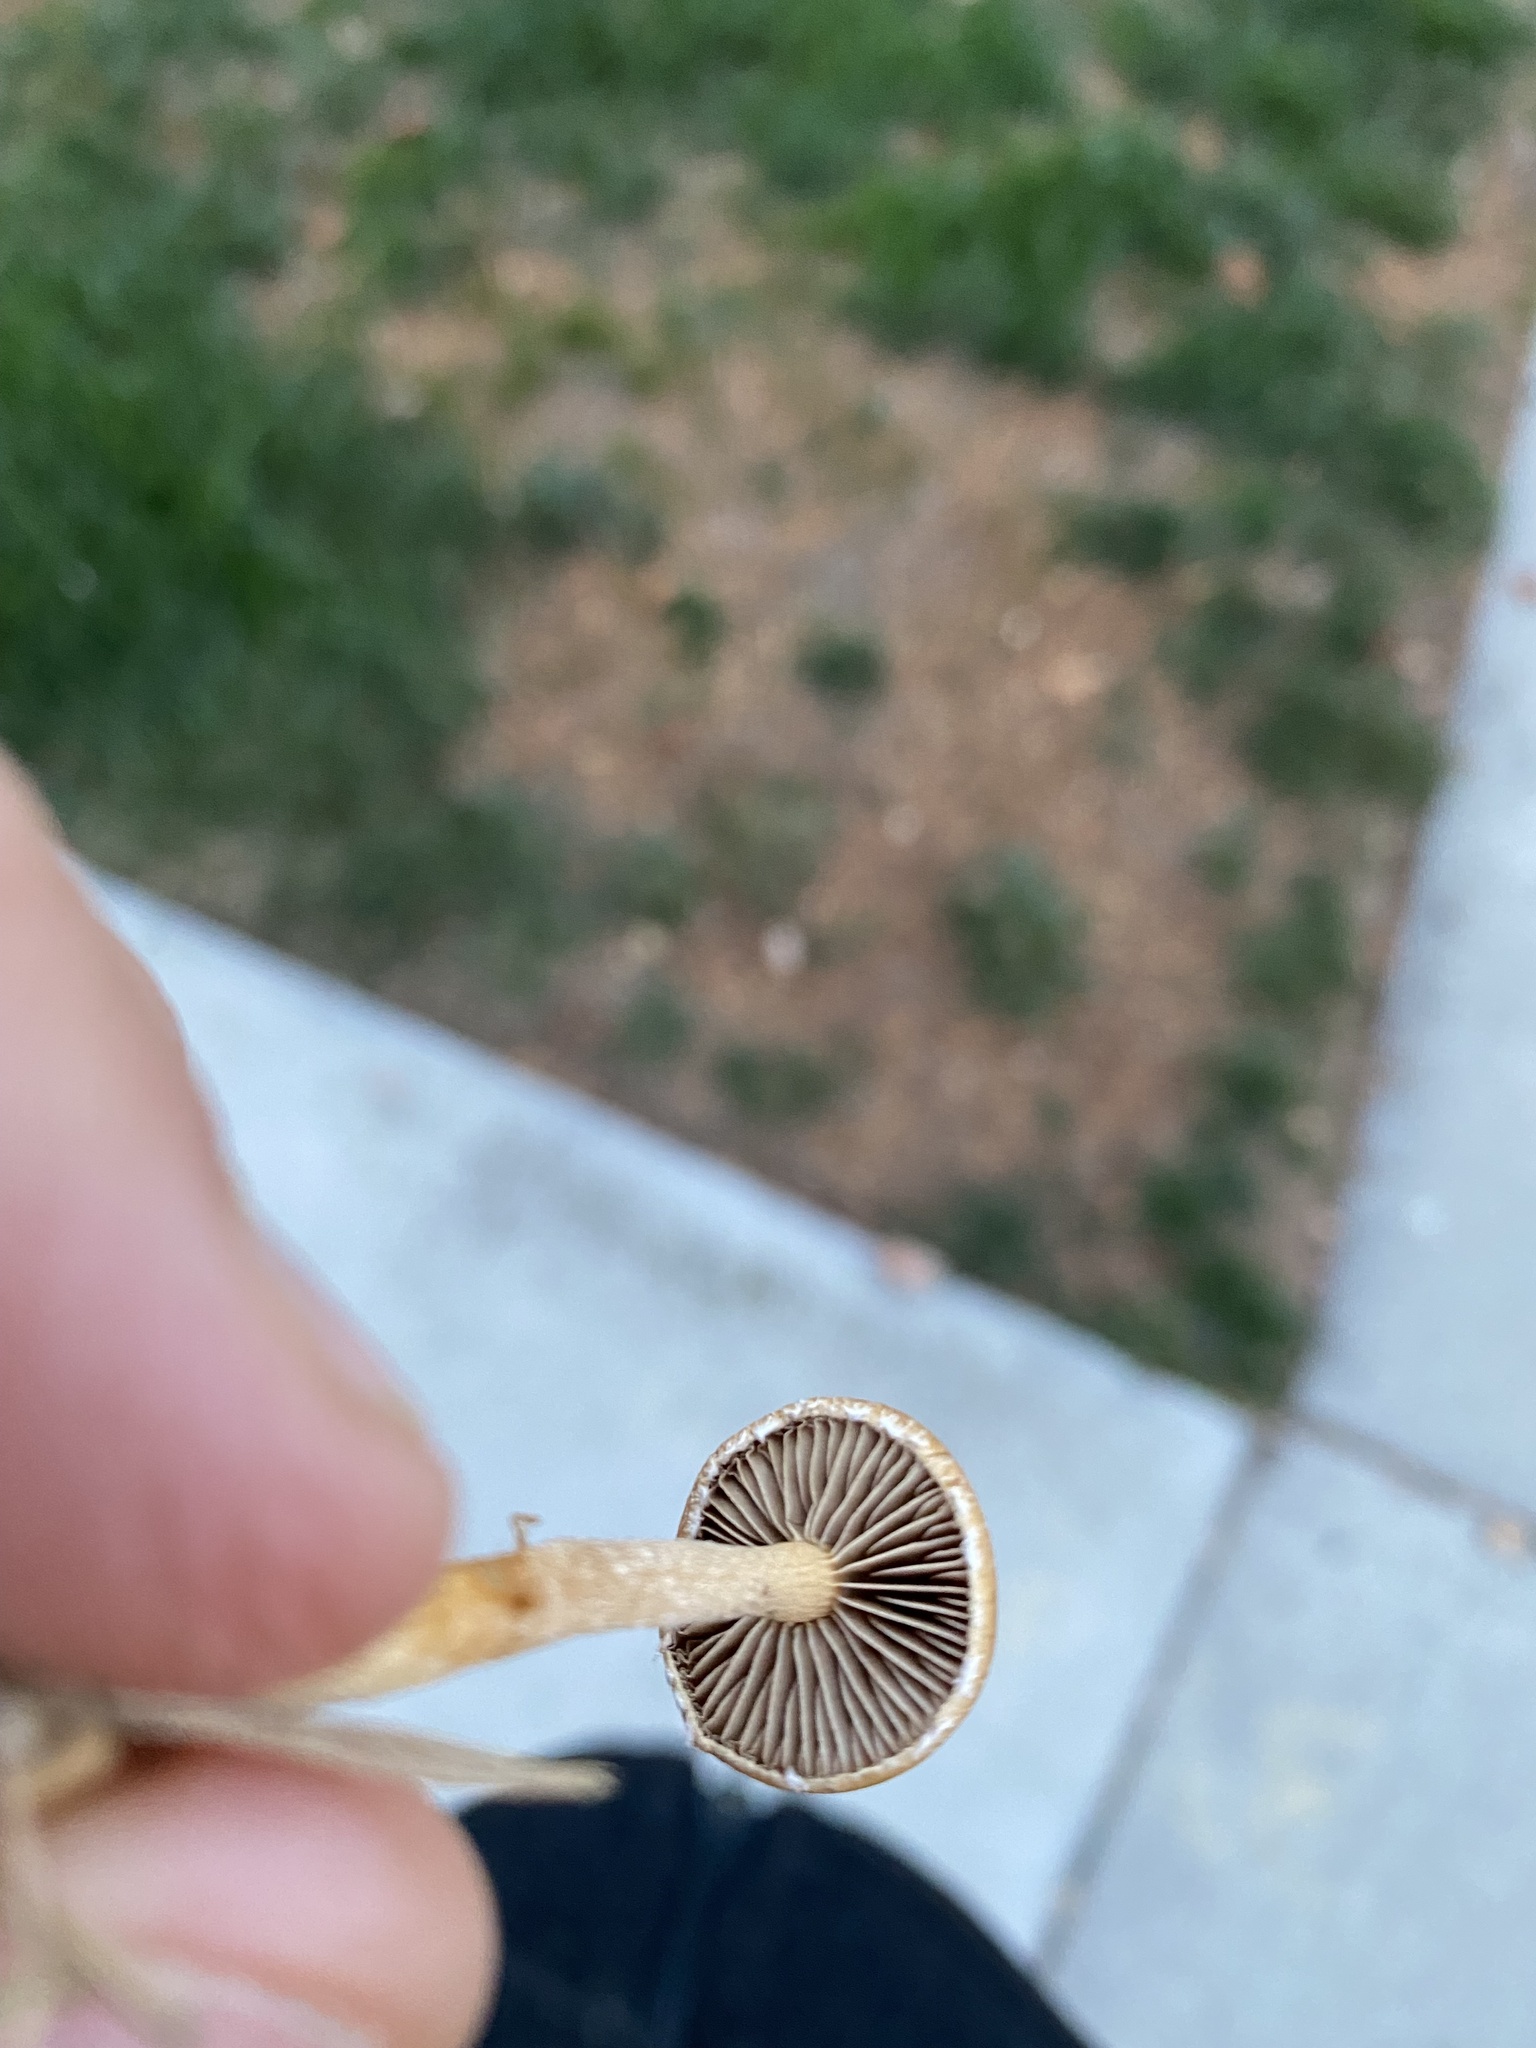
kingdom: Fungi
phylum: Basidiomycota
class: Agaricomycetes
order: Agaricales
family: Strophariaceae
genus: Agrocybe
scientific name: Agrocybe pediades
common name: Common fieldcap
